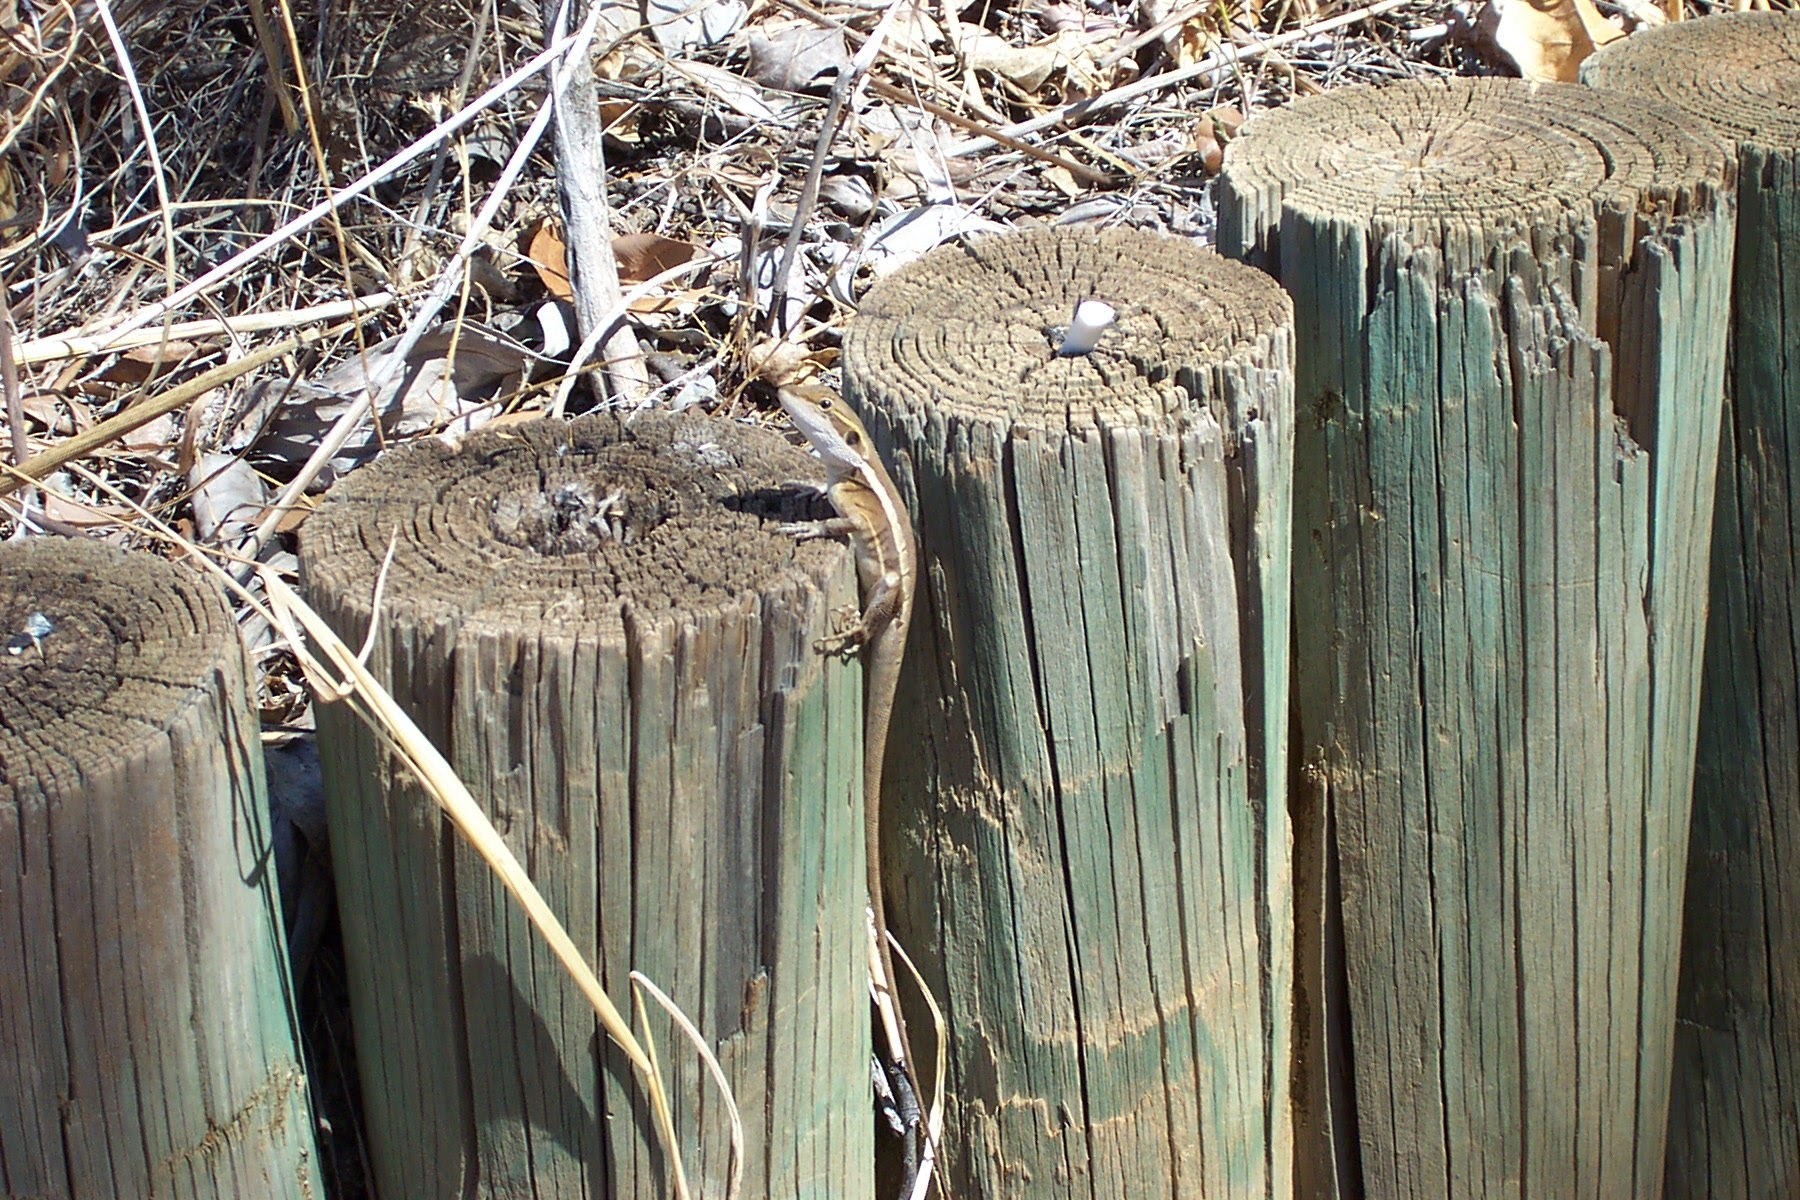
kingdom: Animalia
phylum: Chordata
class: Squamata
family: Agamidae
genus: Tropicagama
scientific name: Tropicagama temporalis
